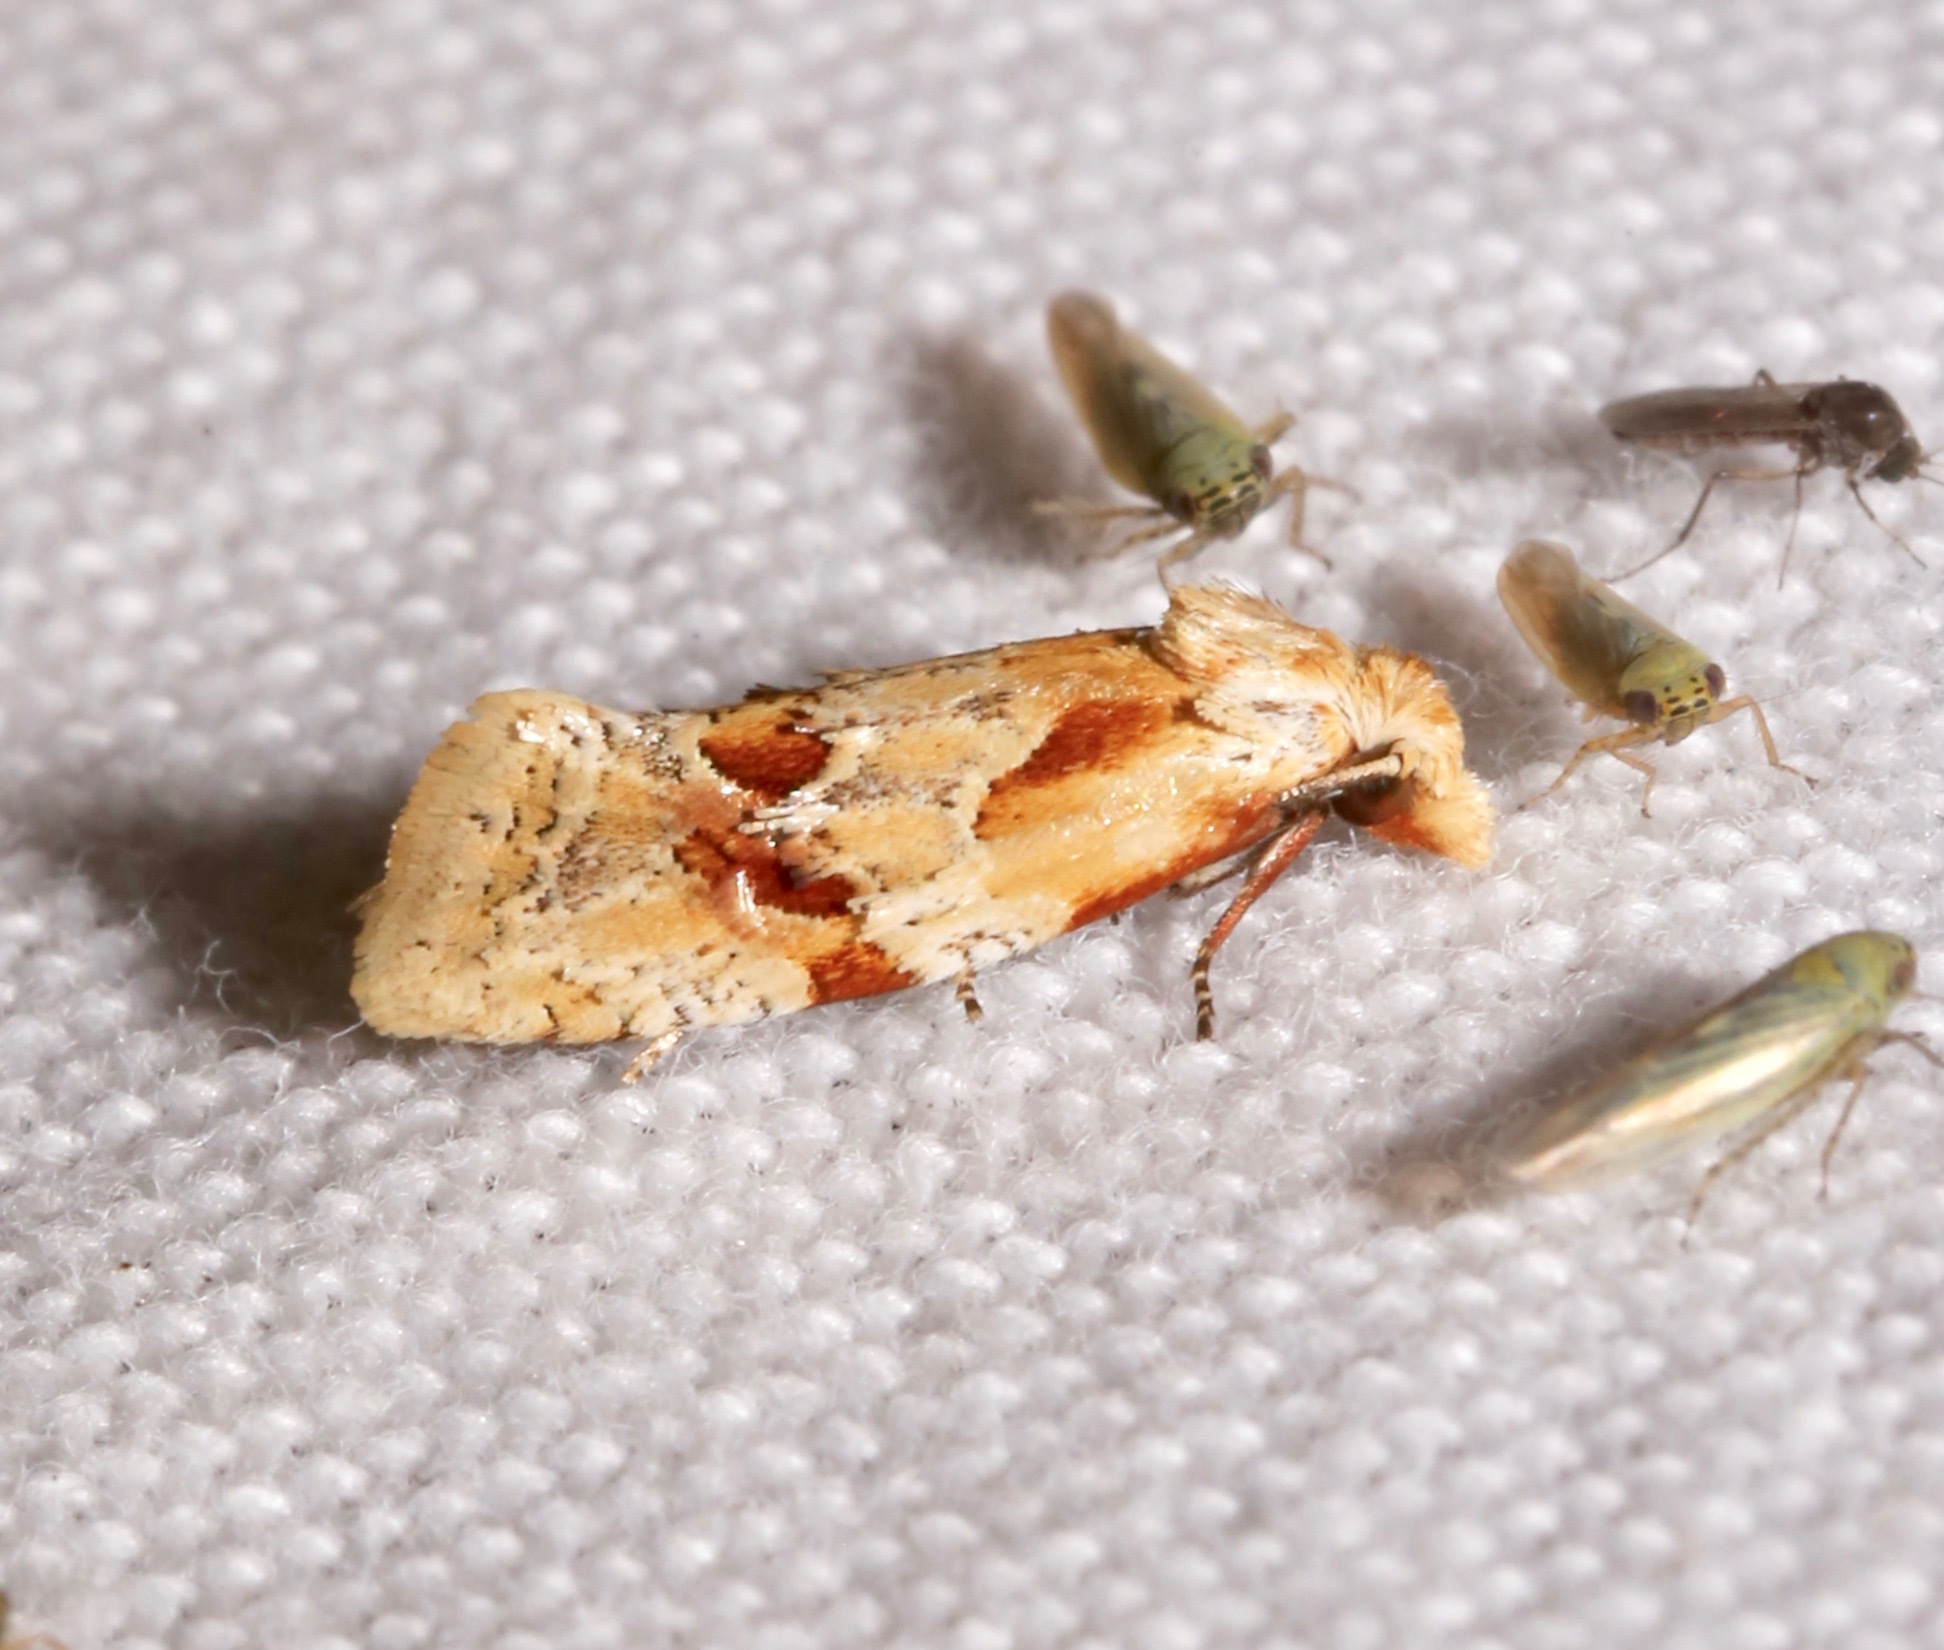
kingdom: Animalia
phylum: Arthropoda
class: Insecta
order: Lepidoptera
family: Tortricidae
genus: Aethes
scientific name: Aethes bomonana
